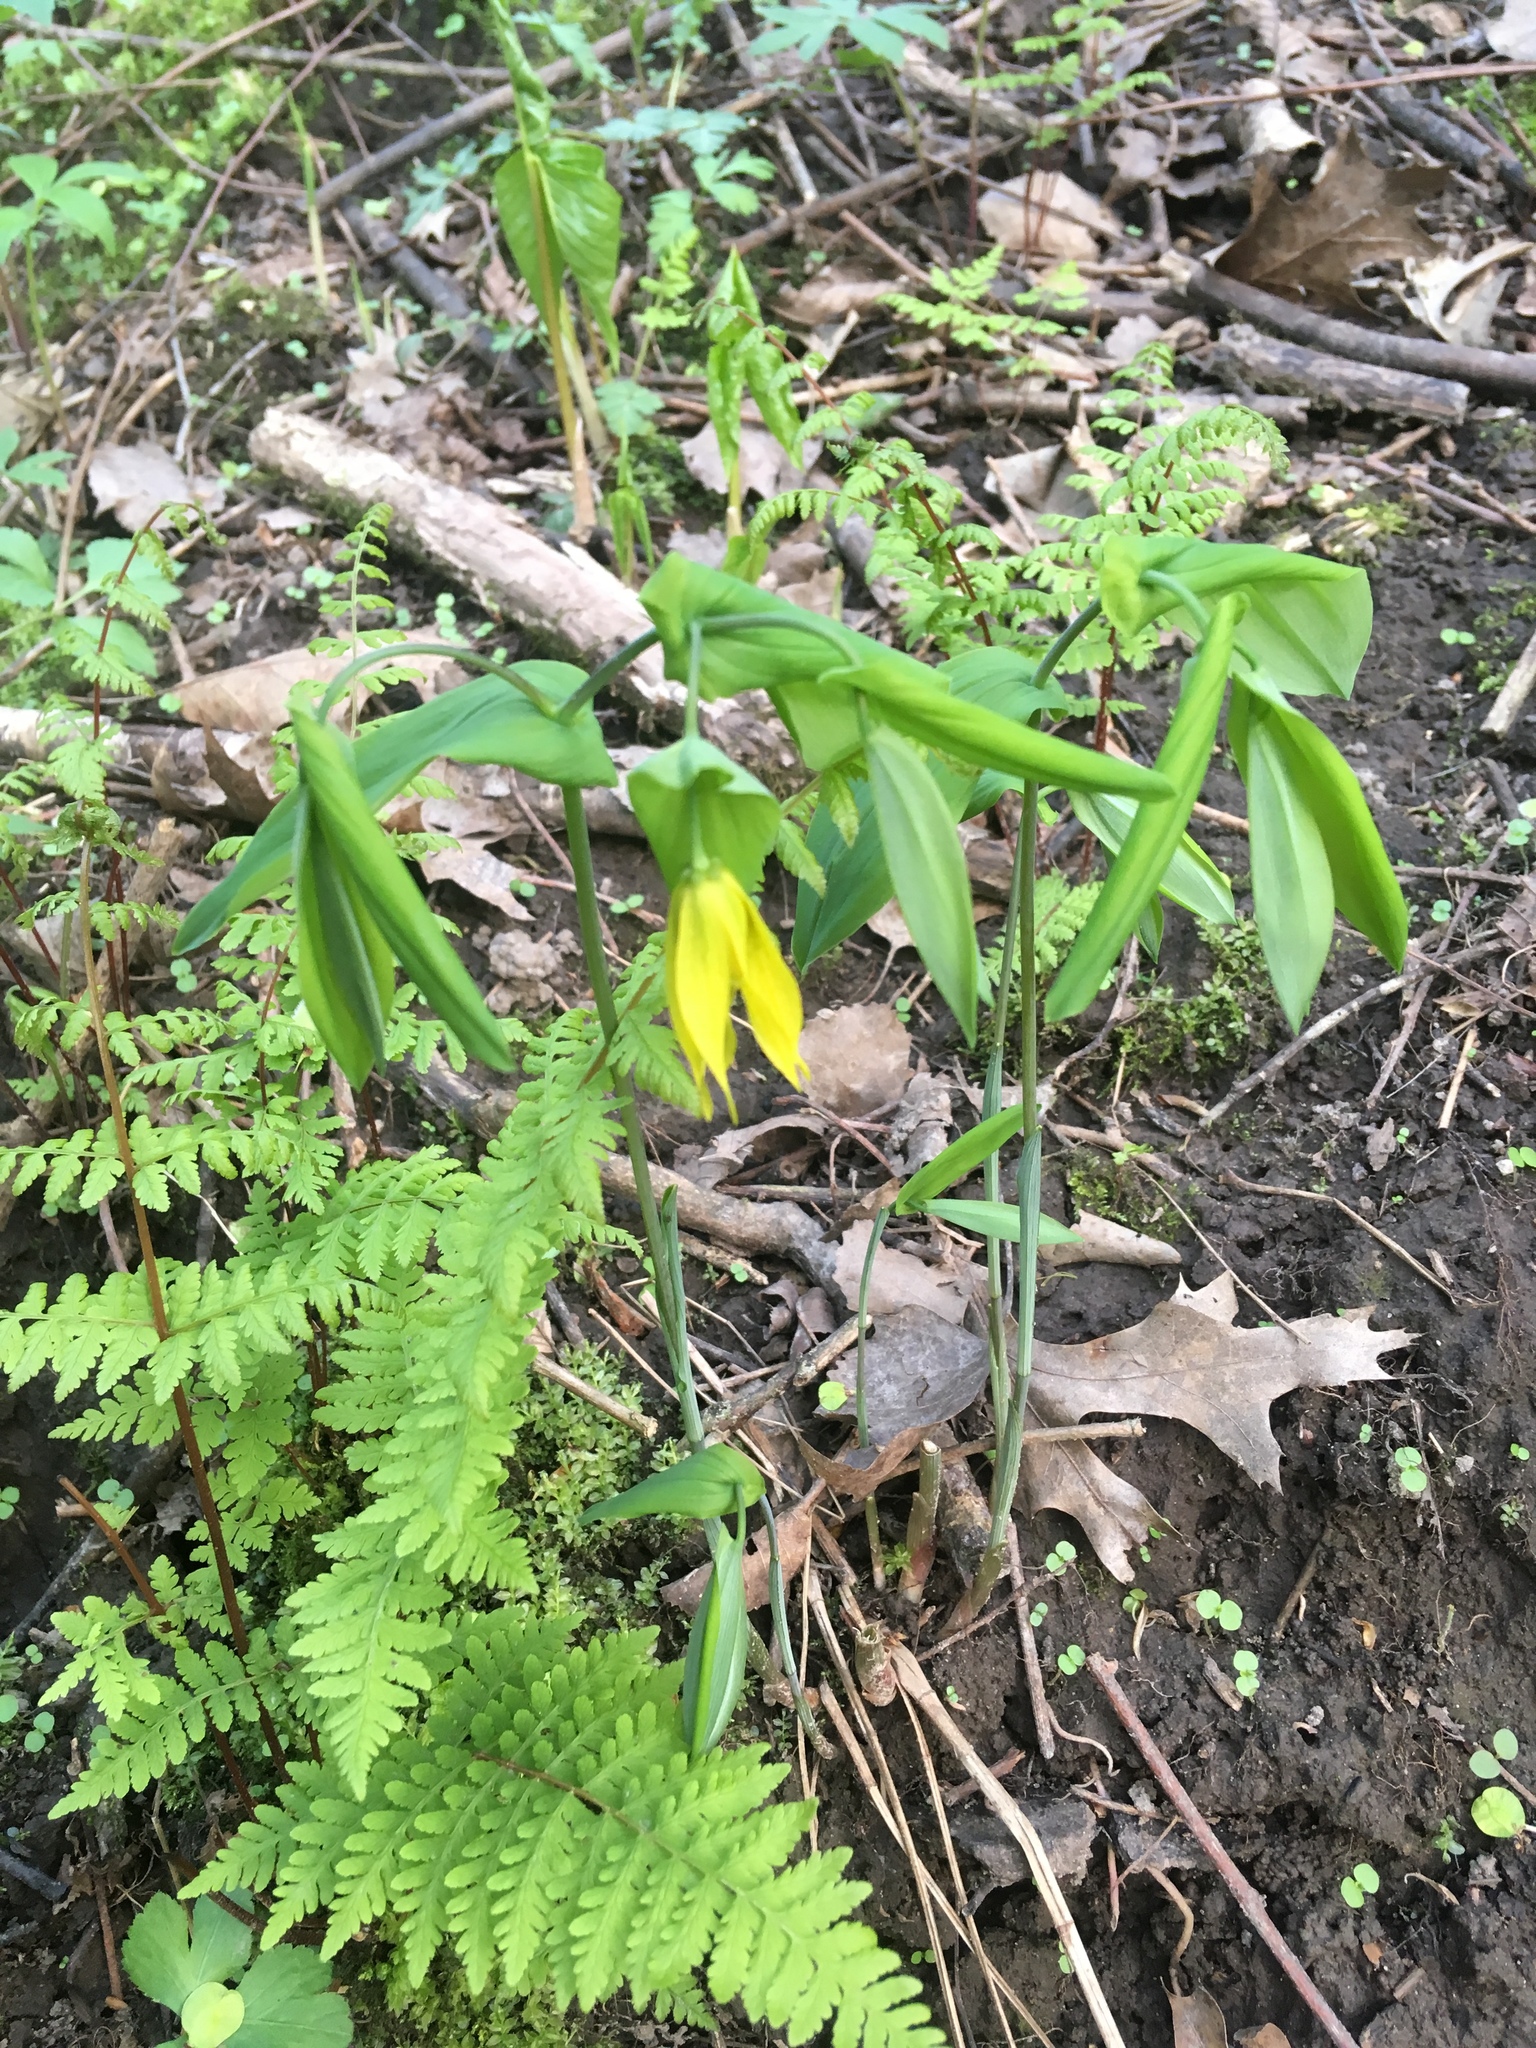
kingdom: Plantae
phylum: Tracheophyta
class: Liliopsida
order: Liliales
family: Colchicaceae
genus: Uvularia
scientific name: Uvularia grandiflora
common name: Bellwort
